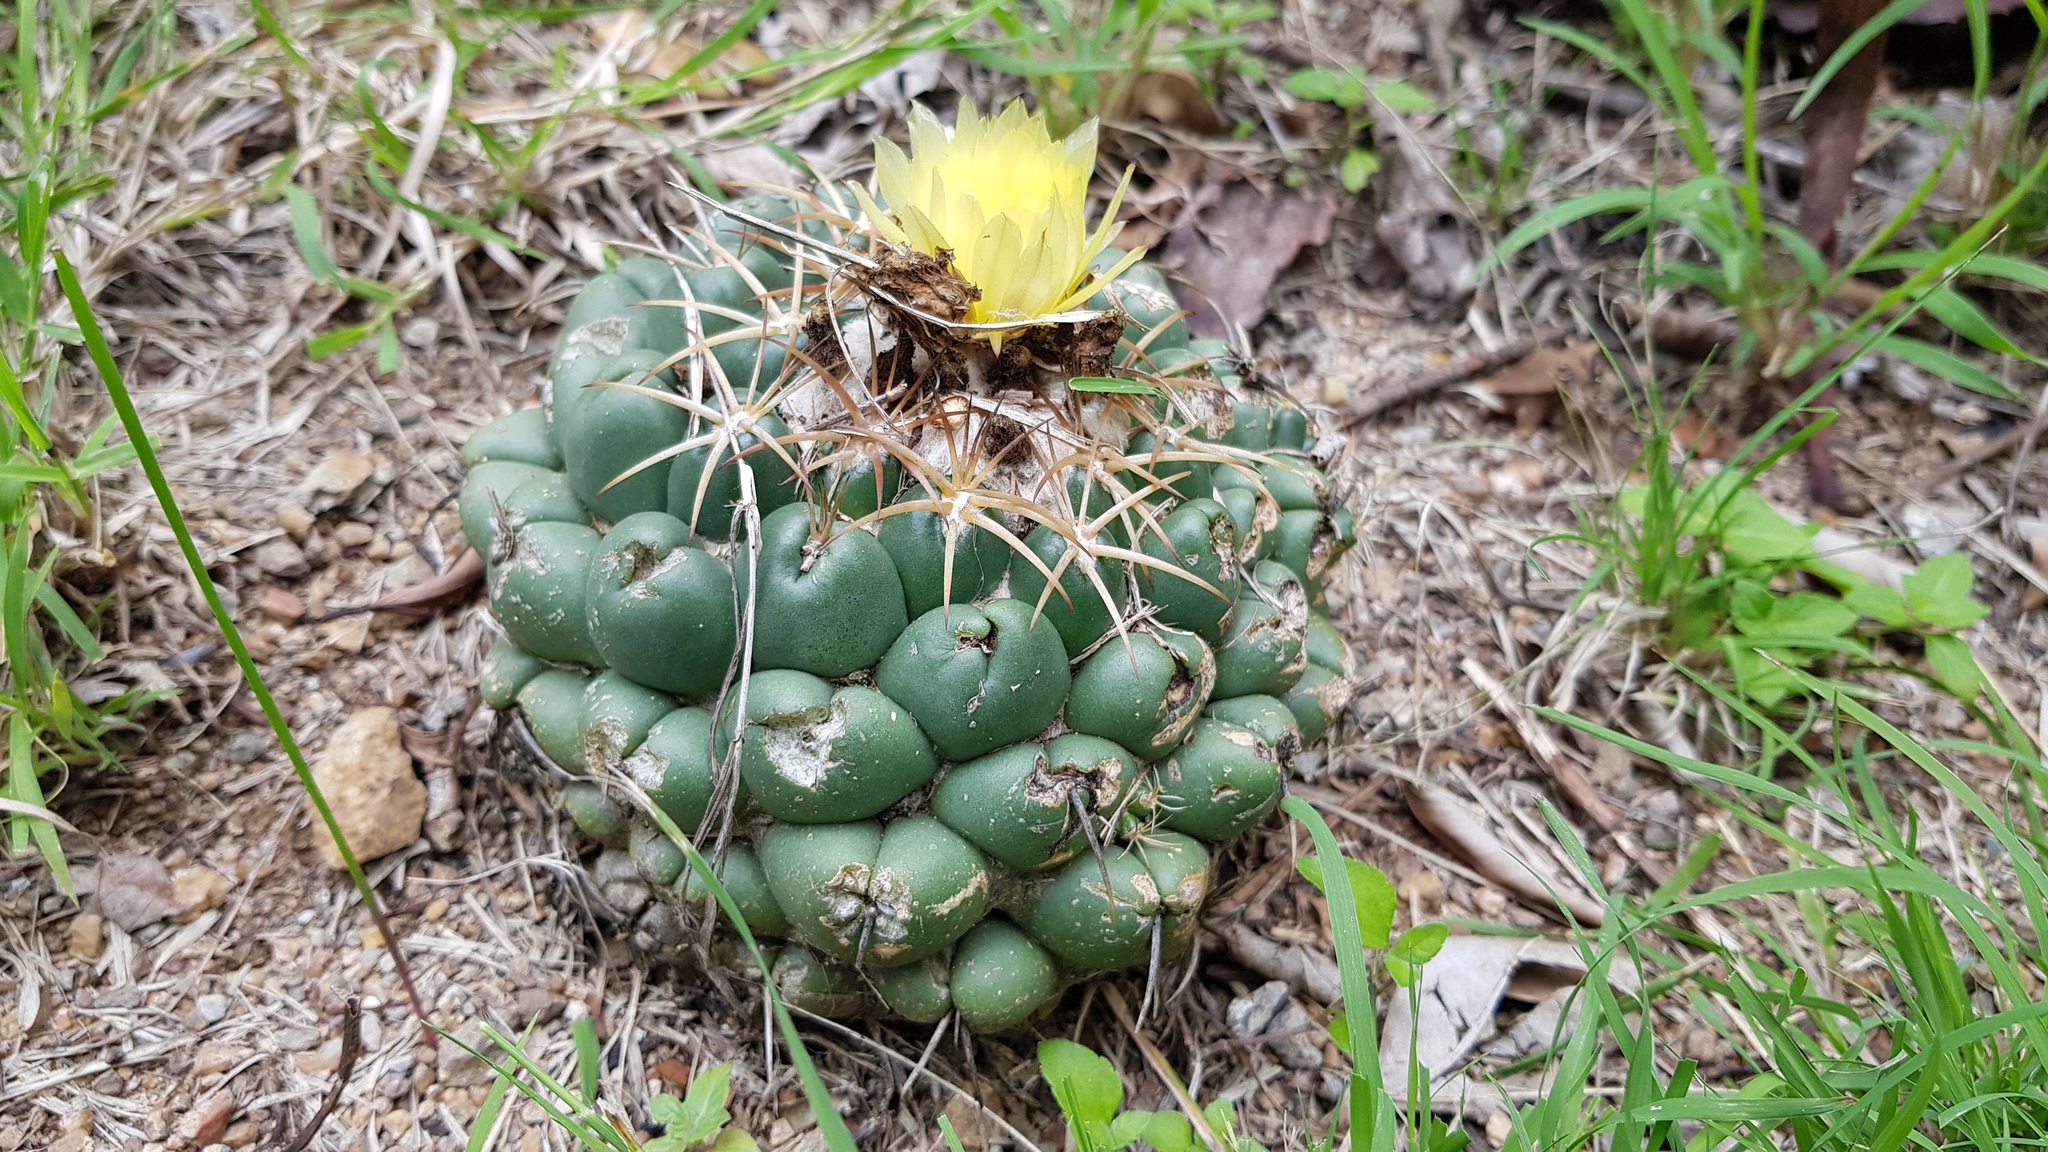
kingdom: Plantae
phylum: Tracheophyta
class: Magnoliopsida
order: Caryophyllales
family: Cactaceae
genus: Coryphantha
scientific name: Coryphantha elephantidens
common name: Elephant's tooth
